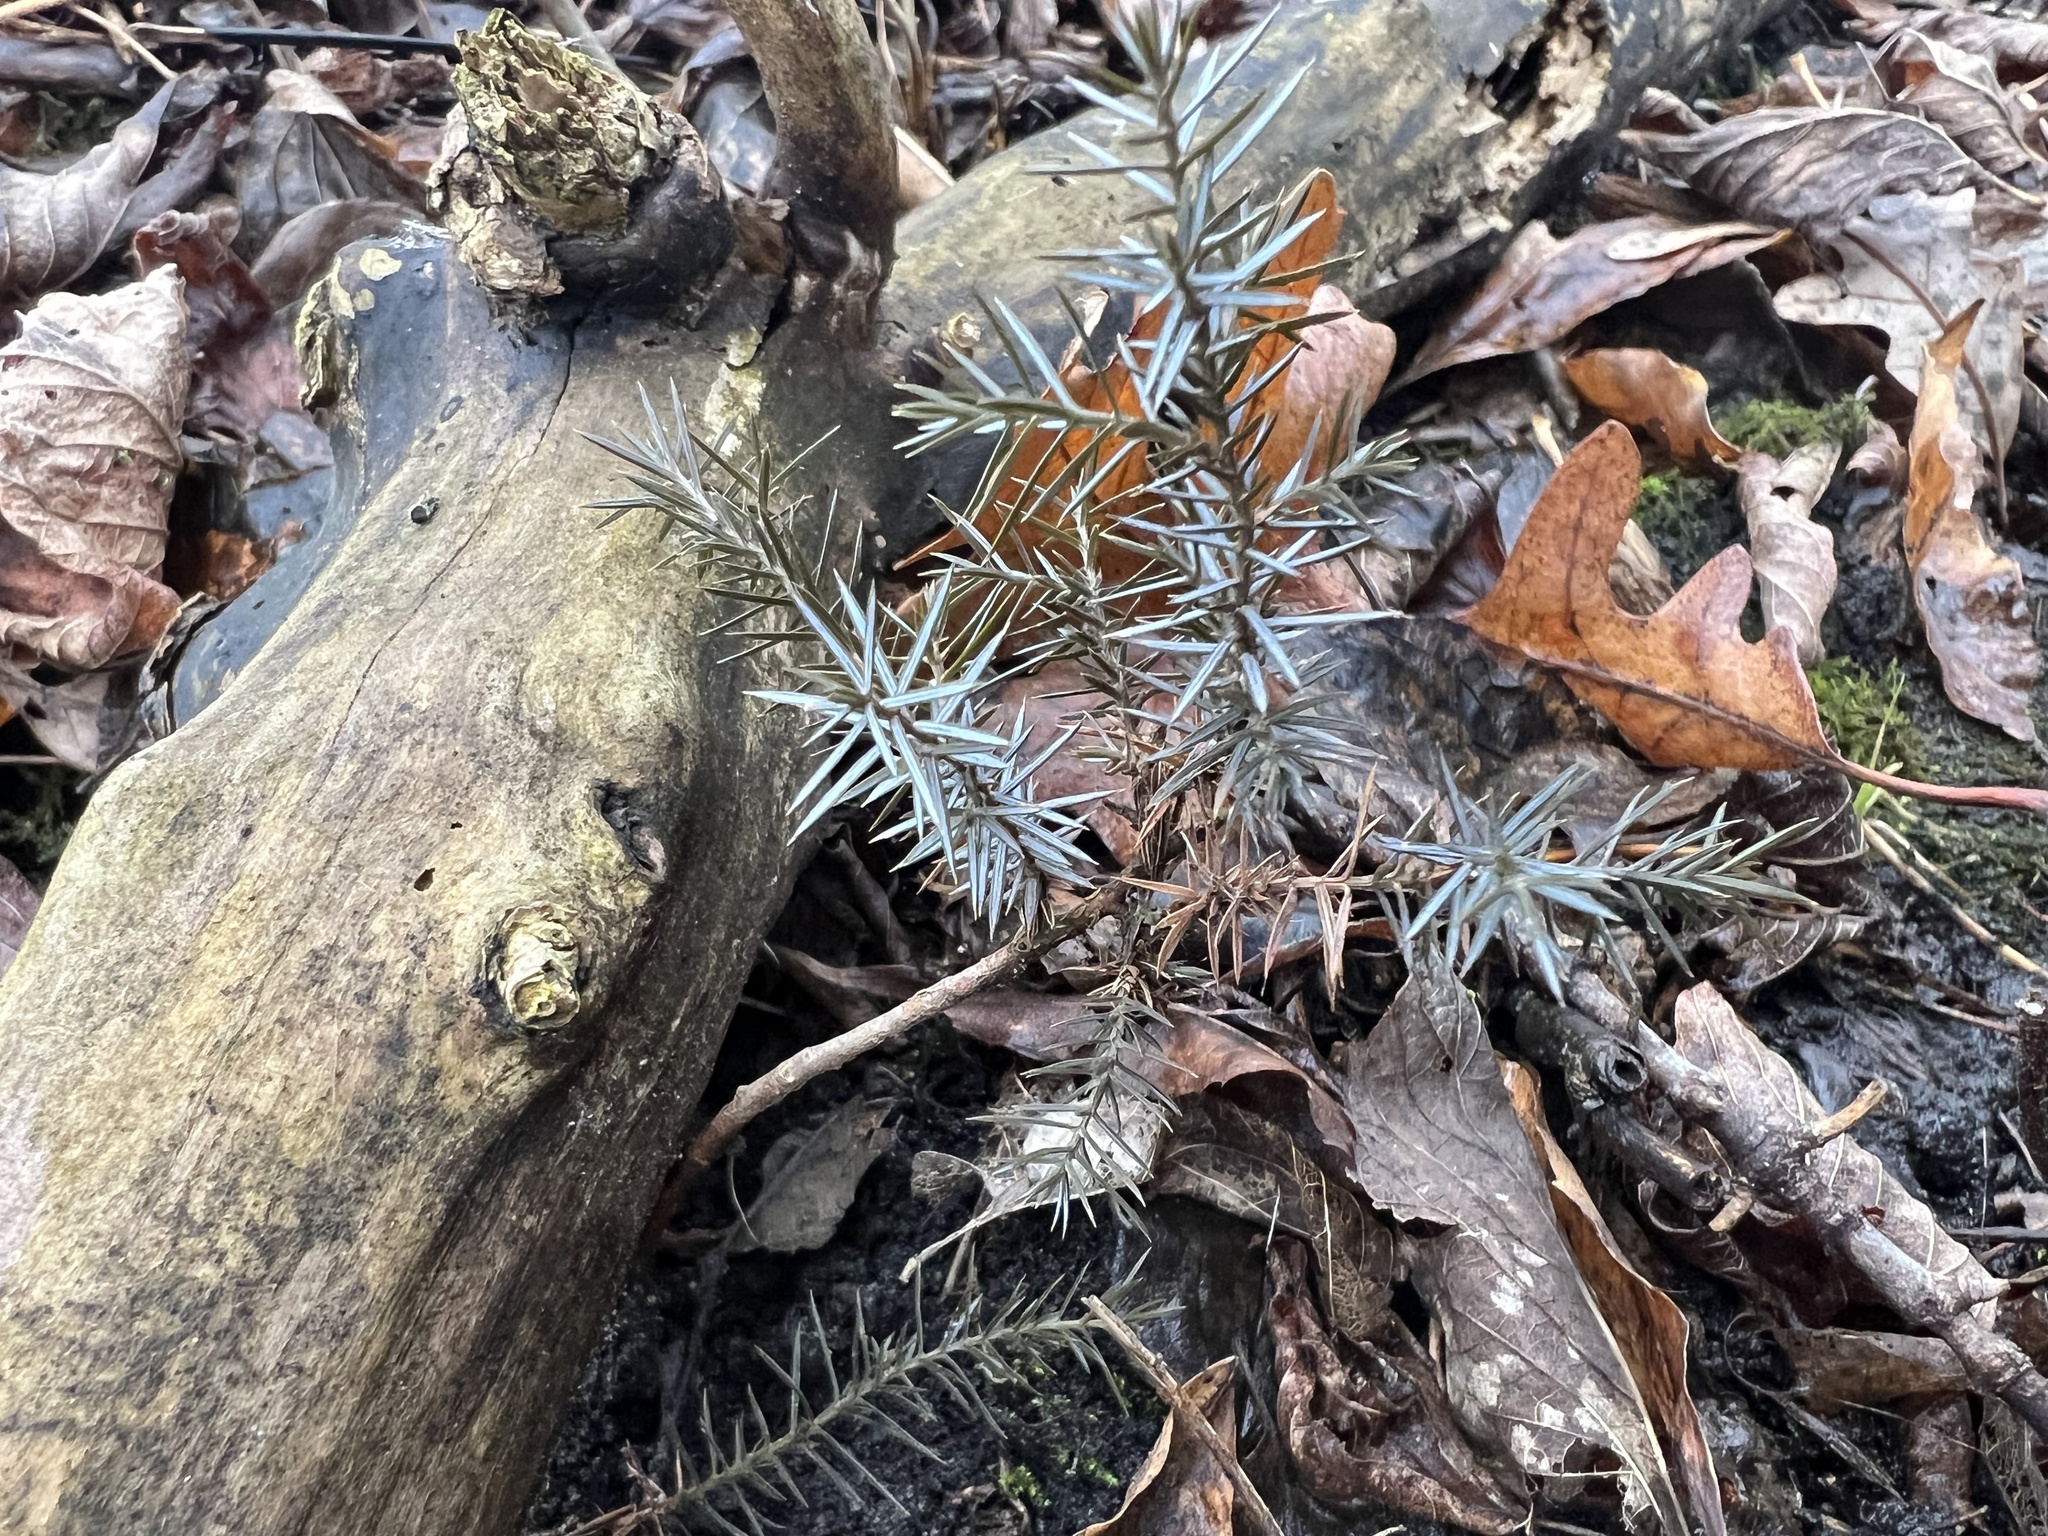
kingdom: Plantae
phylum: Tracheophyta
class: Pinopsida
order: Pinales
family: Cupressaceae
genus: Juniperus
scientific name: Juniperus virginiana
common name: Red juniper
